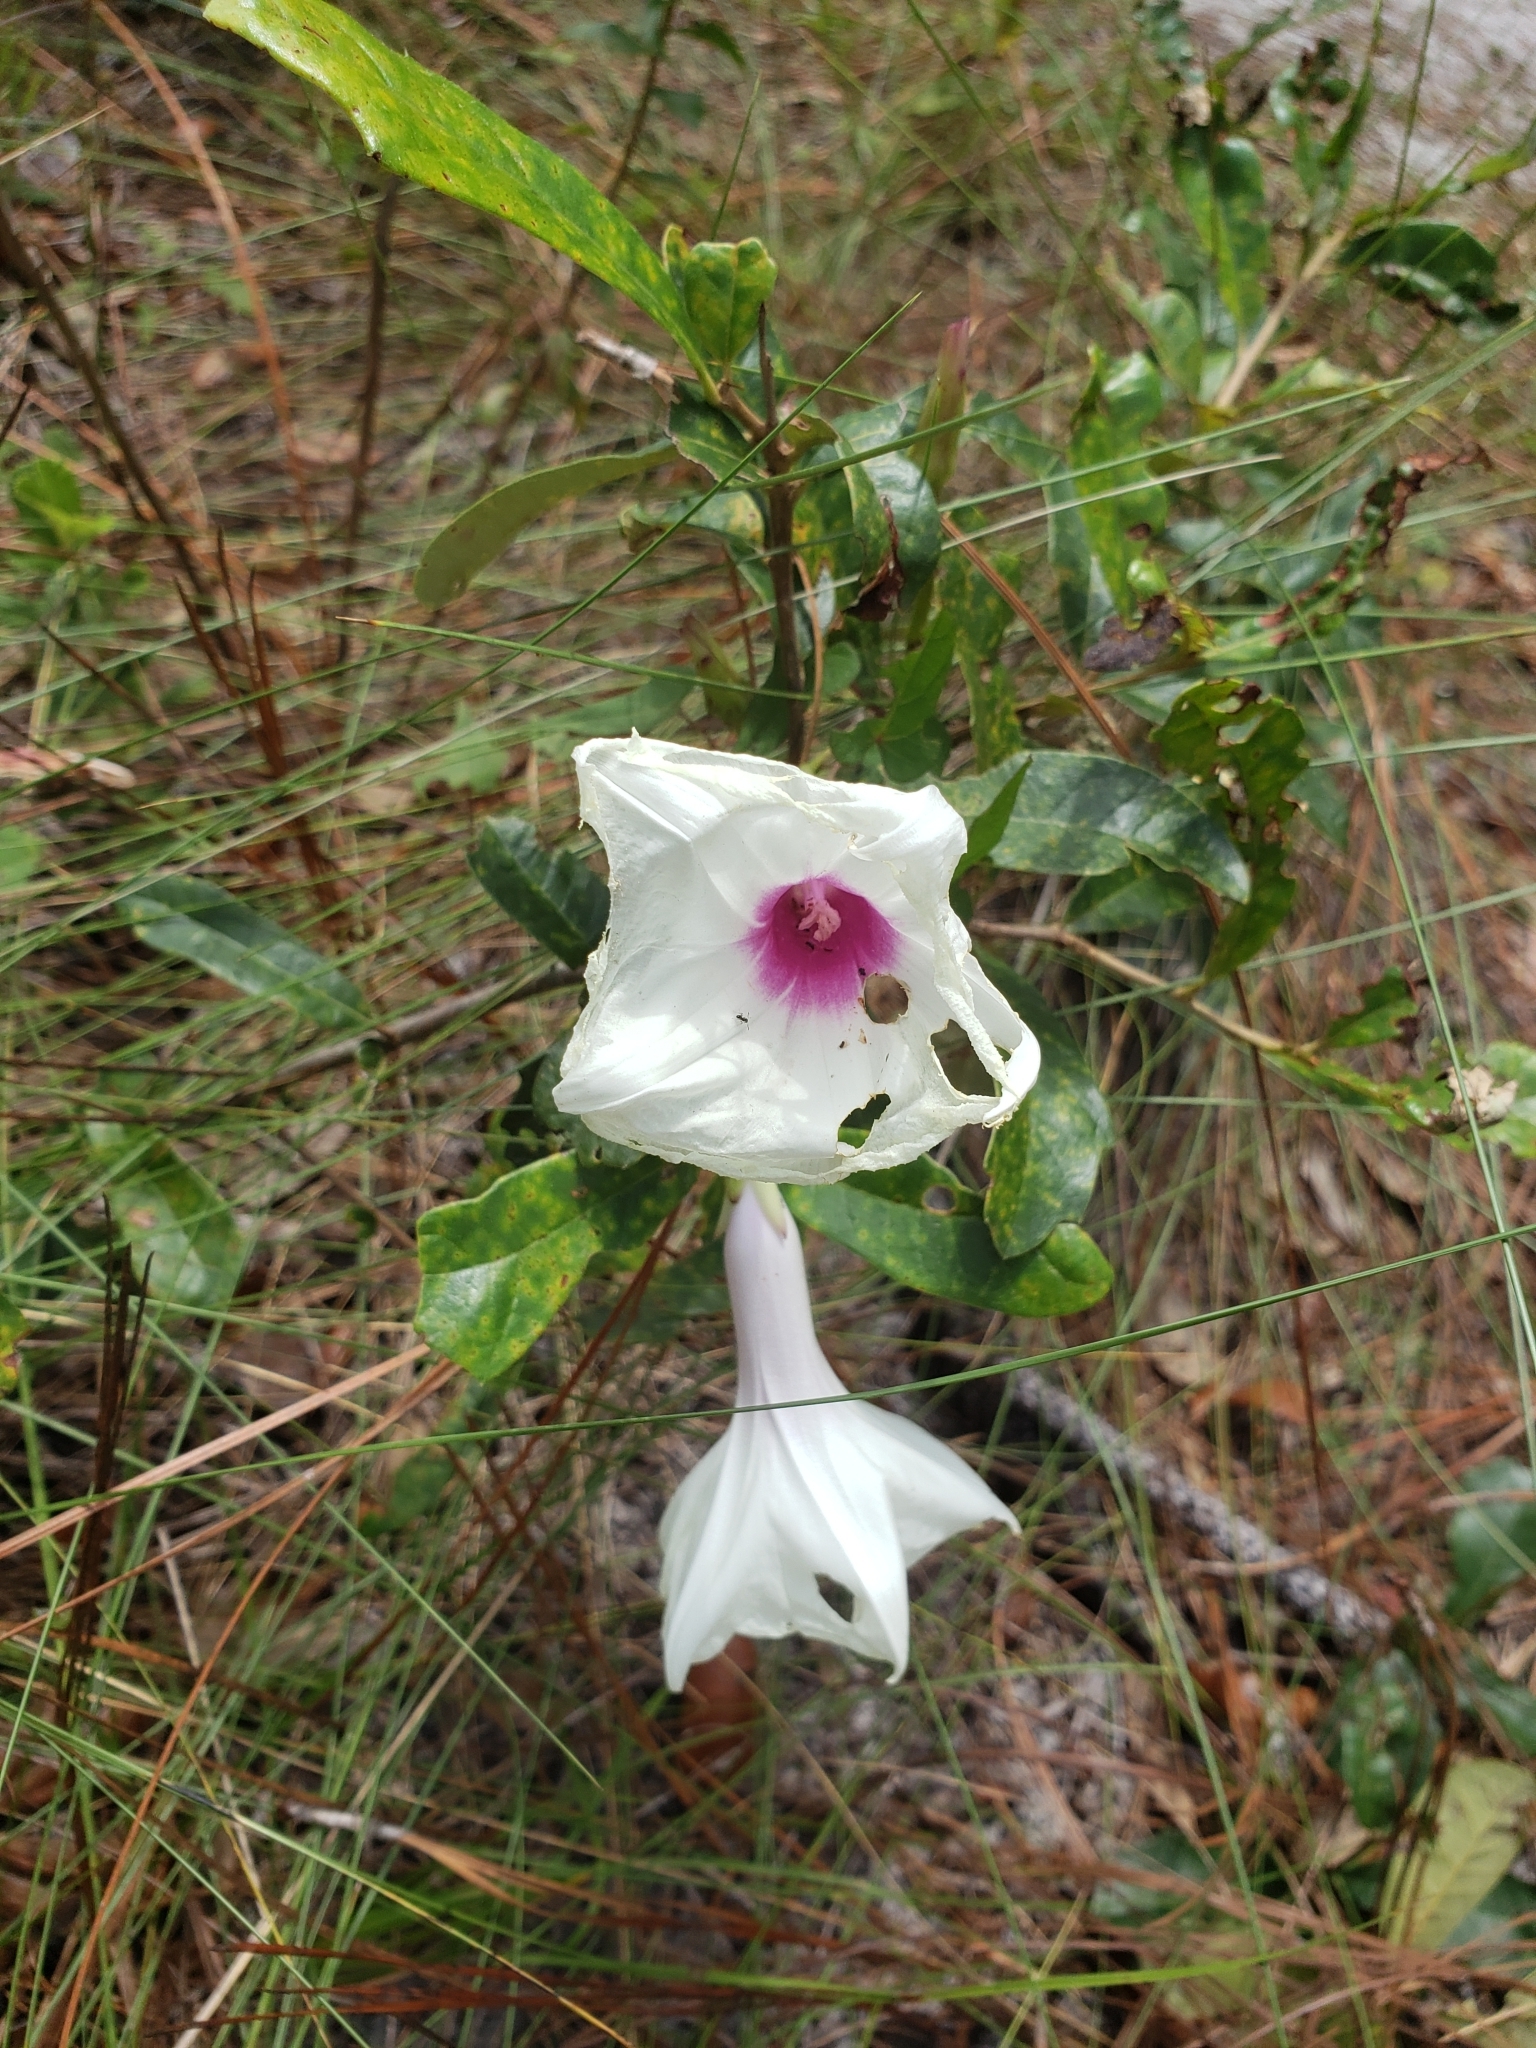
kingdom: Plantae
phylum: Tracheophyta
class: Magnoliopsida
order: Solanales
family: Convolvulaceae
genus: Ipomoea
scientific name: Ipomoea pandurata
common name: Man-of-the-earth
